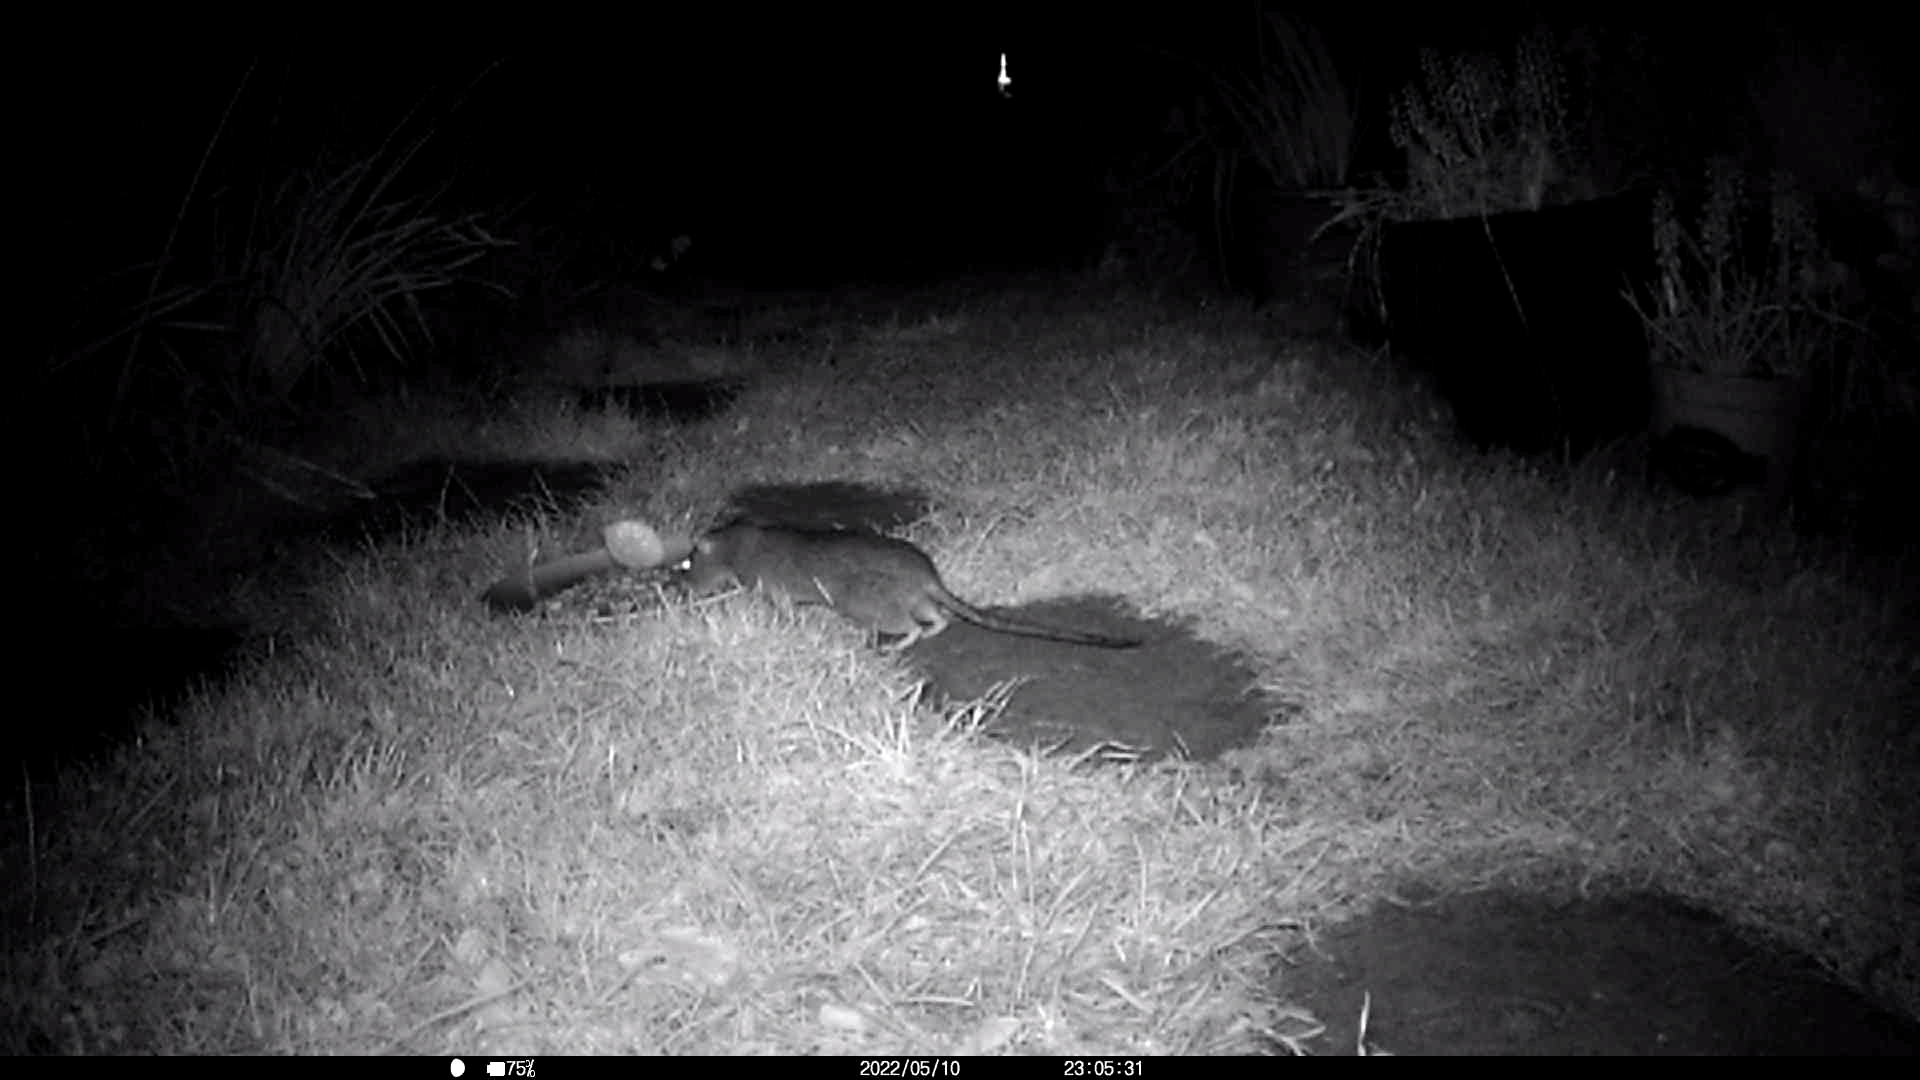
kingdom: Animalia
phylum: Chordata
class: Mammalia
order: Rodentia
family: Muridae
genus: Rattus
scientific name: Rattus norvegicus
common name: Brown rat
